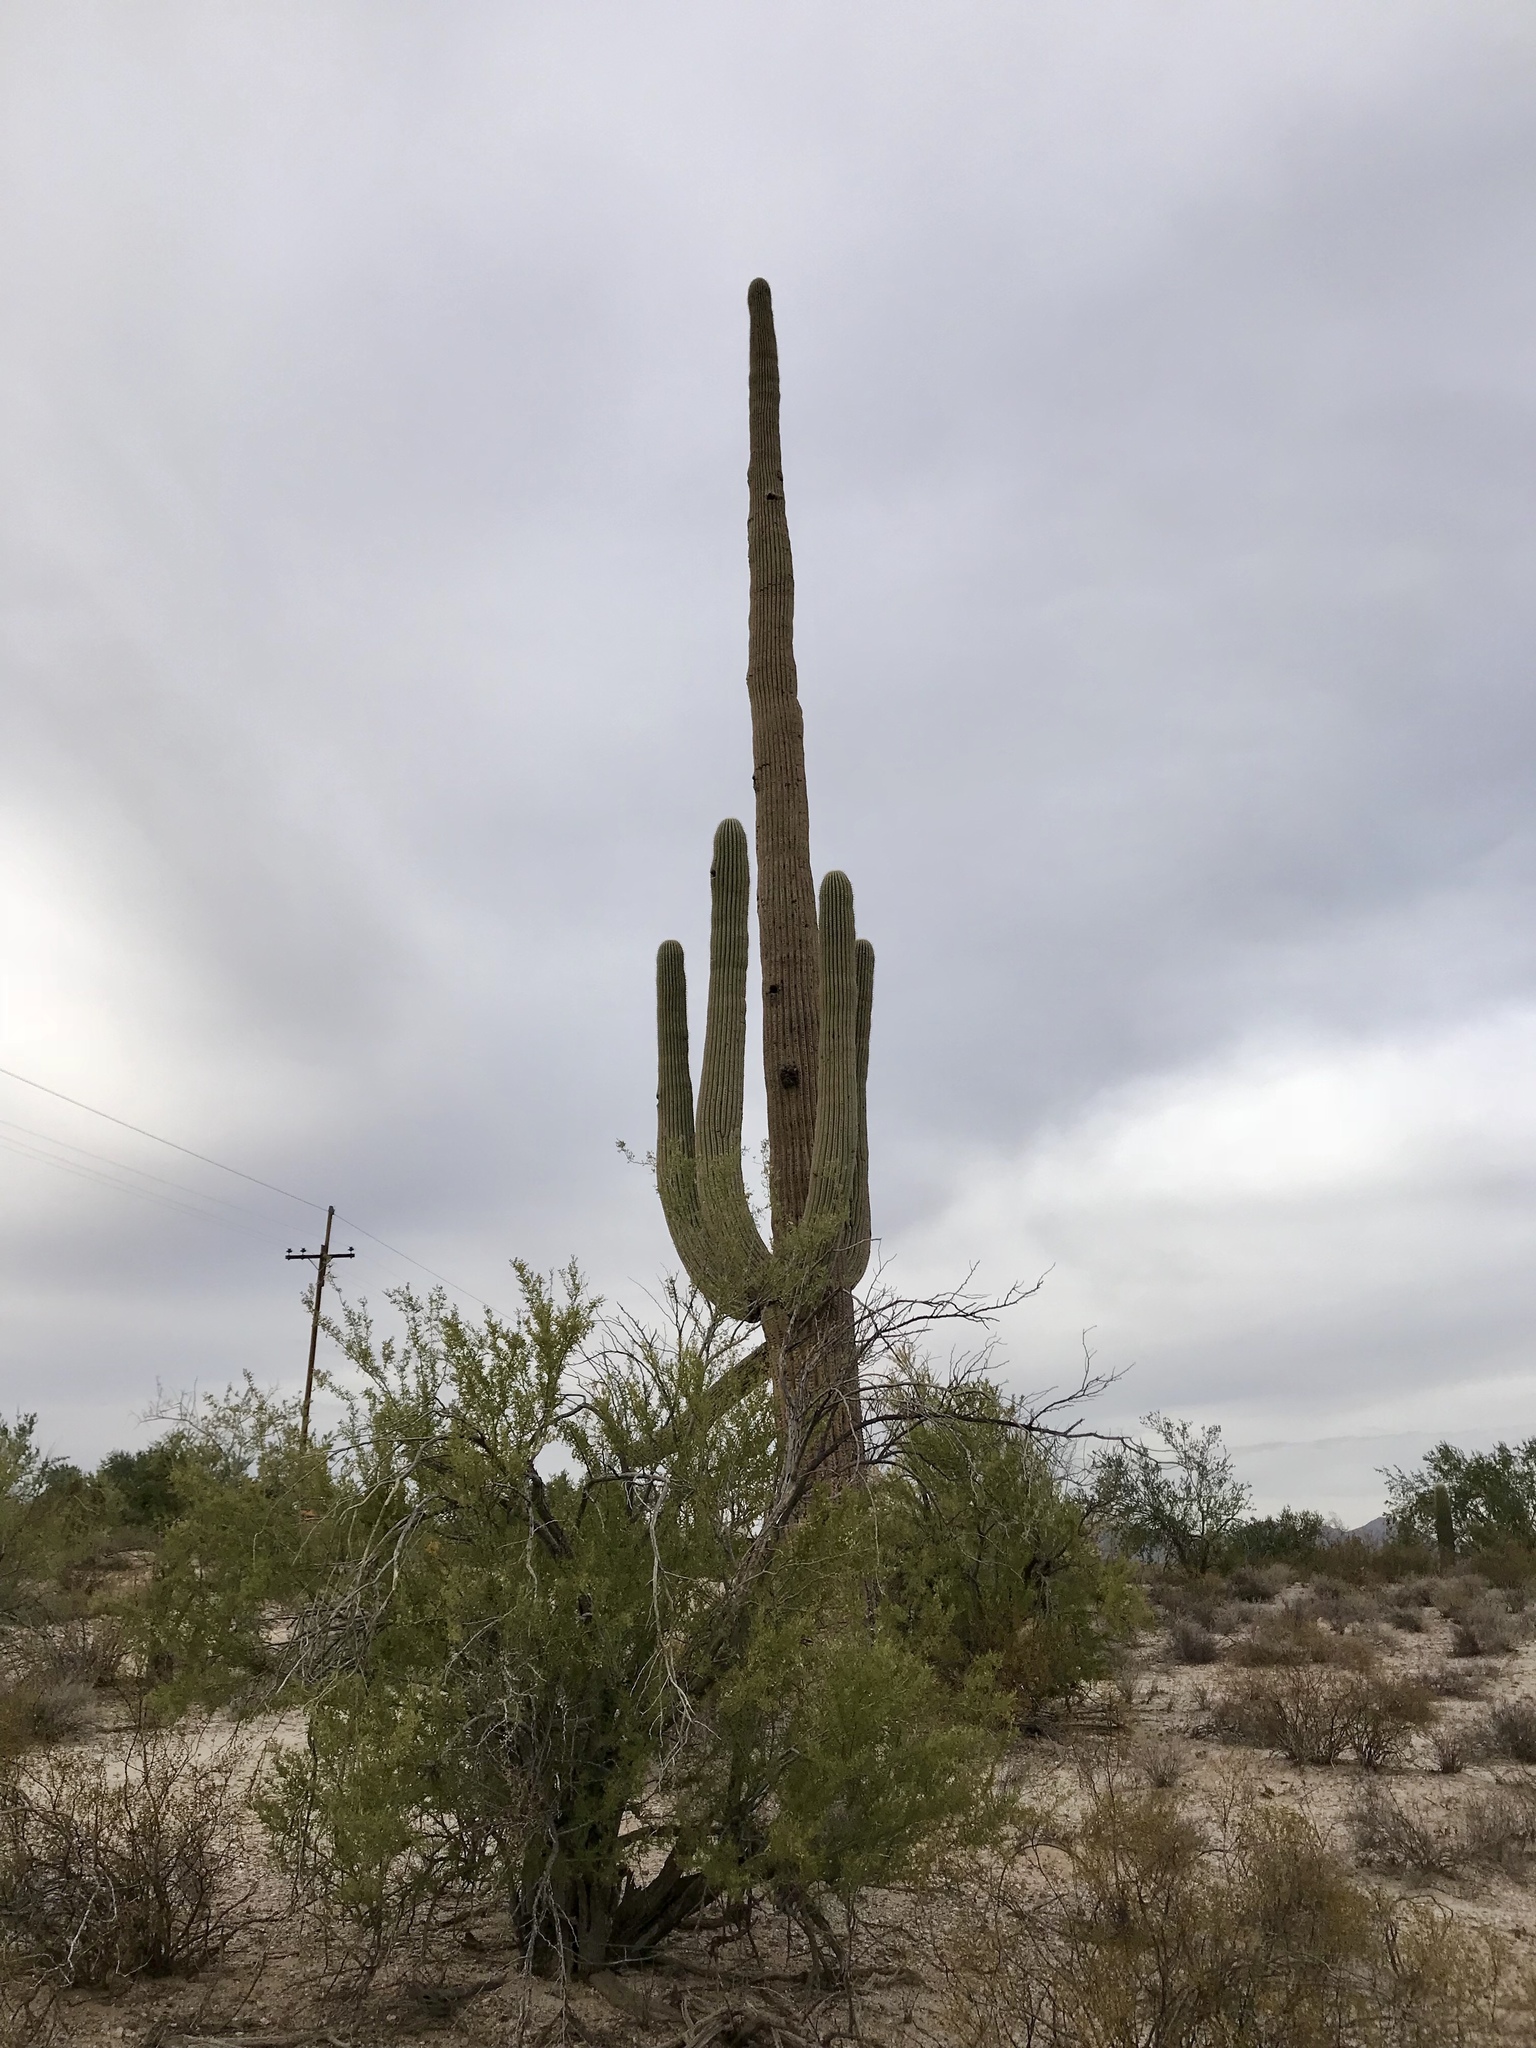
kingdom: Plantae
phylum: Tracheophyta
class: Magnoliopsida
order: Caryophyllales
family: Cactaceae
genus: Carnegiea
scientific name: Carnegiea gigantea
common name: Saguaro
